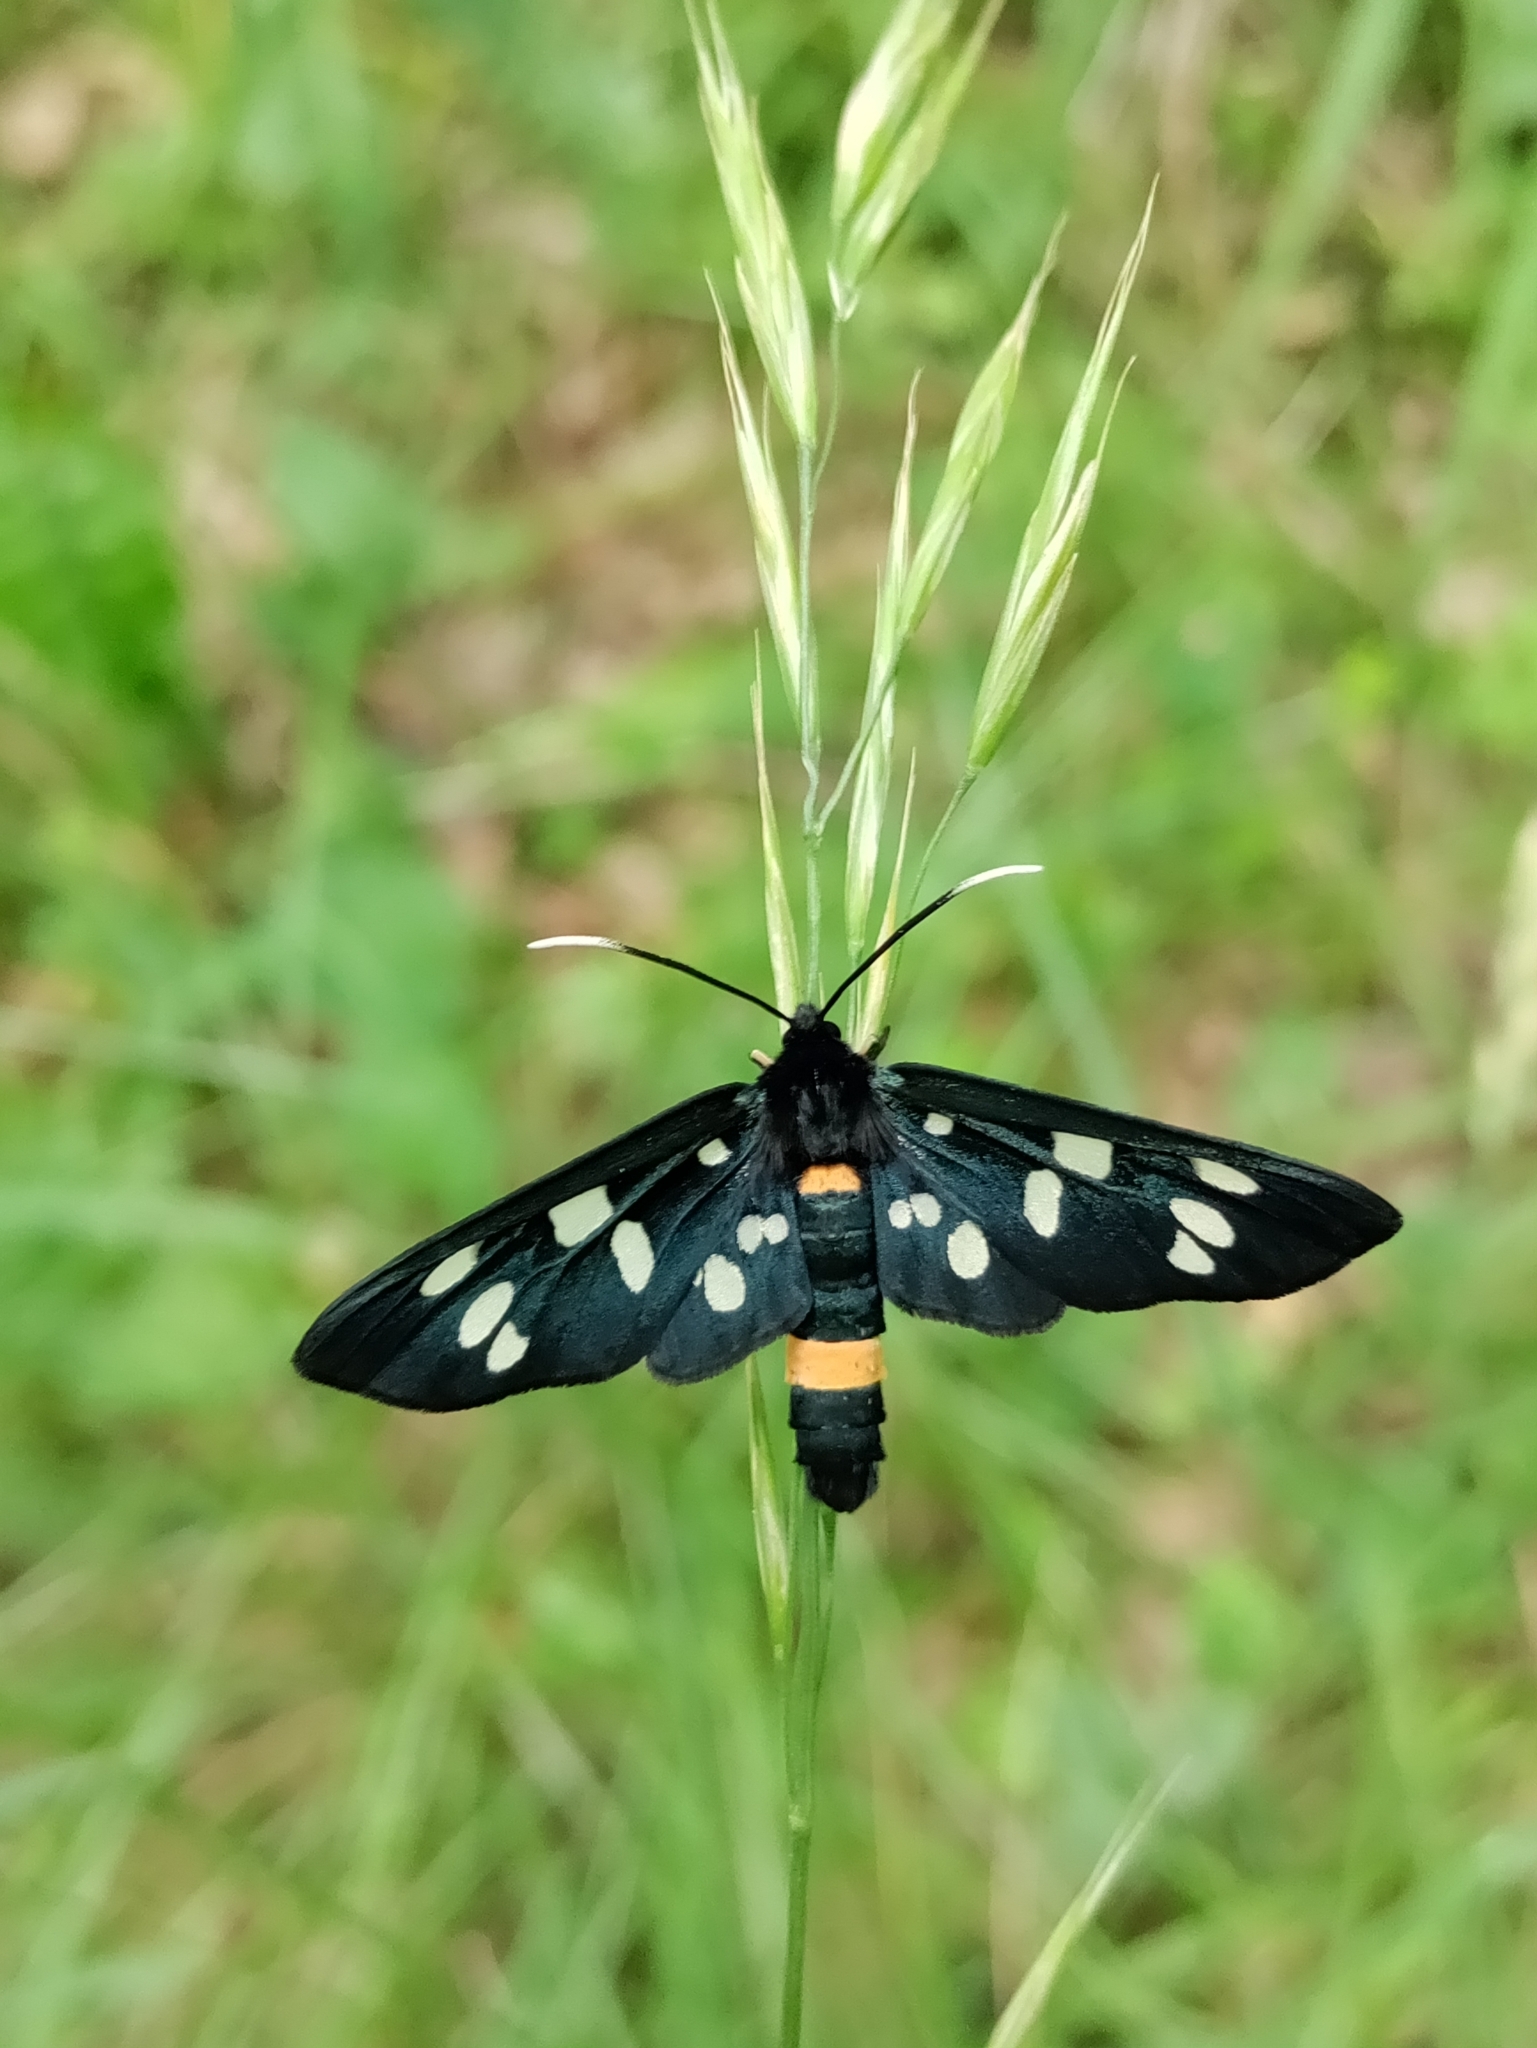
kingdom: Animalia
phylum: Arthropoda
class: Insecta
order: Lepidoptera
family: Erebidae
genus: Amata
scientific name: Amata phegea
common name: Nine-spotted
